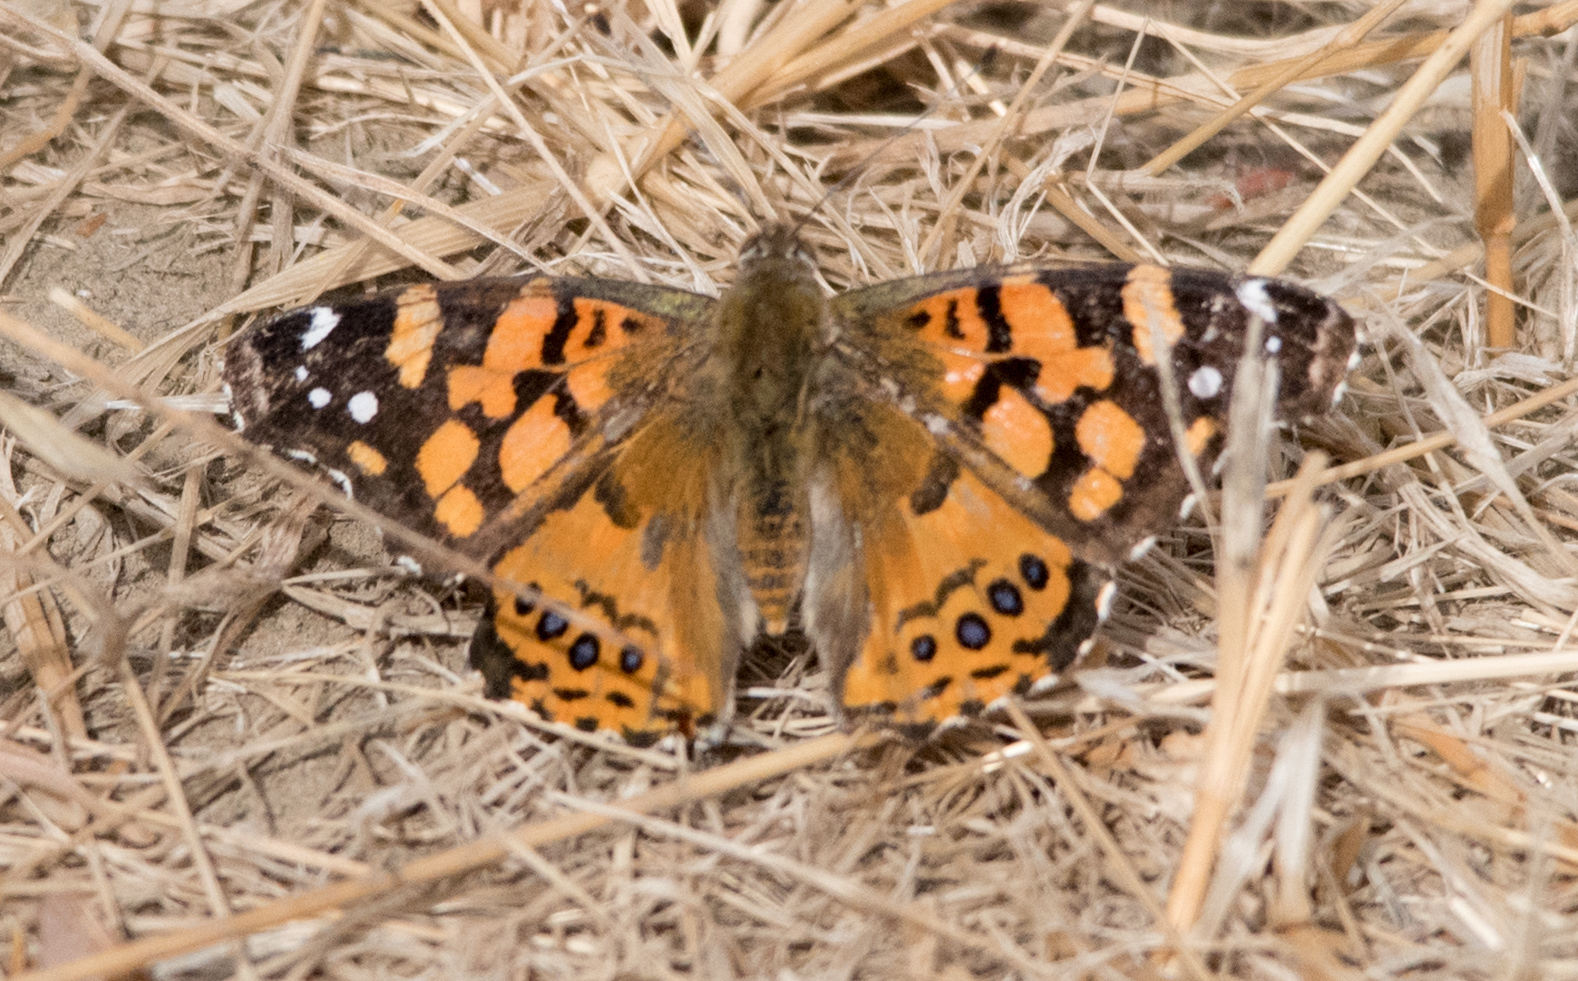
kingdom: Animalia
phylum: Arthropoda
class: Insecta
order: Lepidoptera
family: Nymphalidae
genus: Vanessa
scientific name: Vanessa annabella
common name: West coast lady
